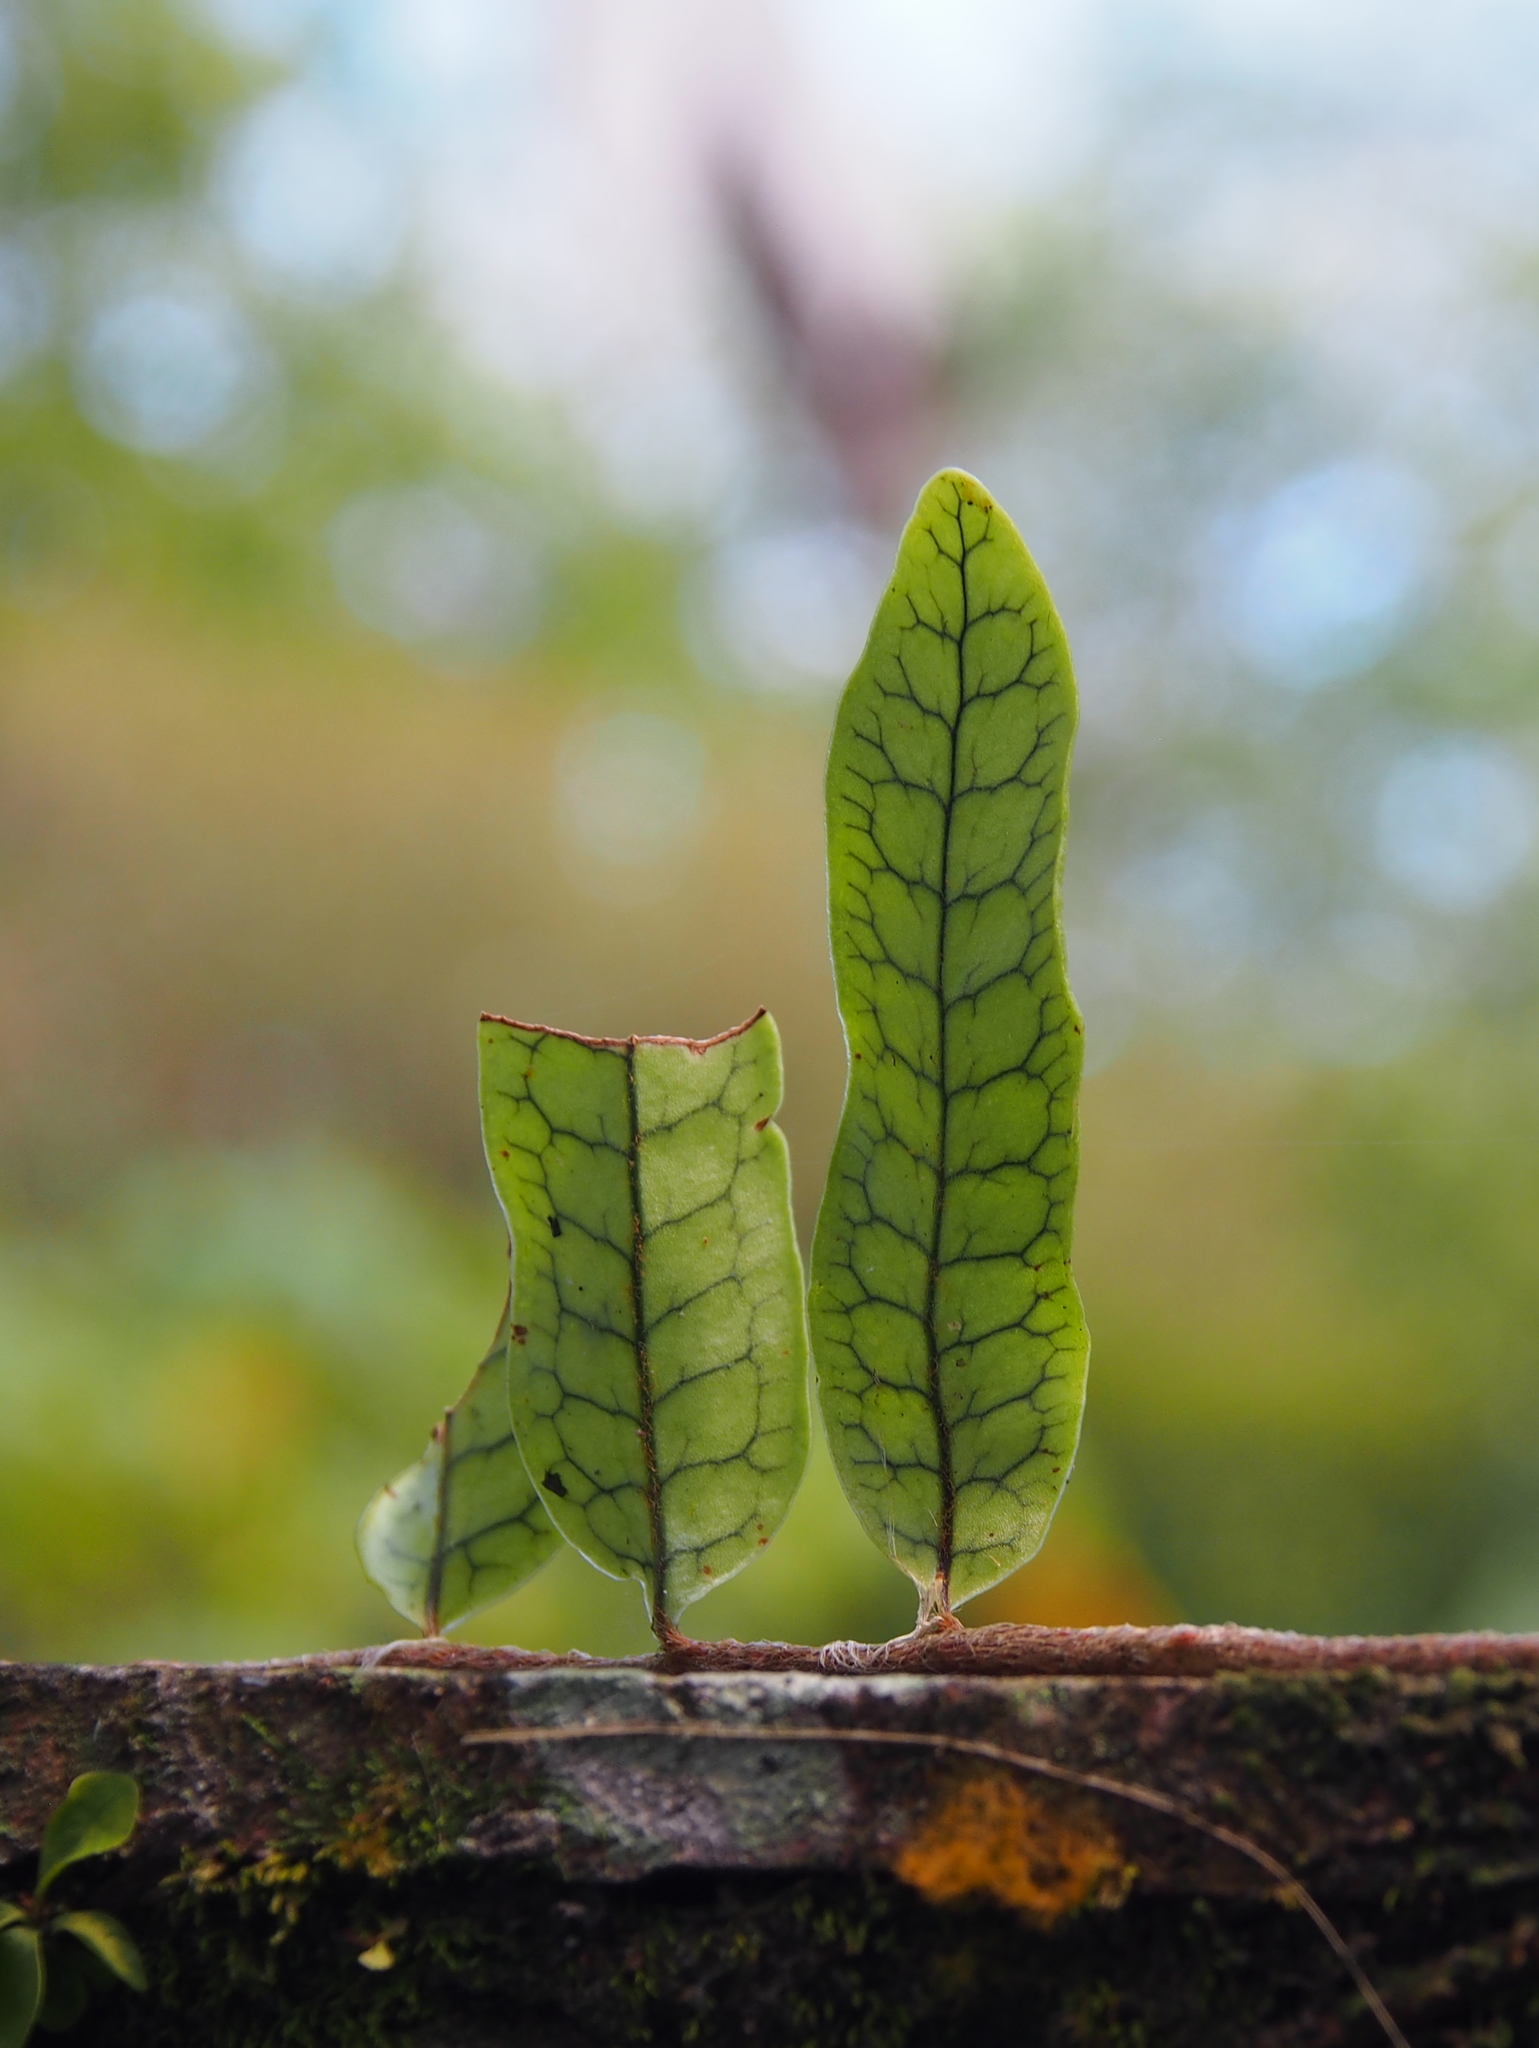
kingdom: Plantae
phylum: Tracheophyta
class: Polypodiopsida
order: Polypodiales
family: Polypodiaceae
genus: Microgramma
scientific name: Microgramma lycopodioides
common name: Bastard catclaw
